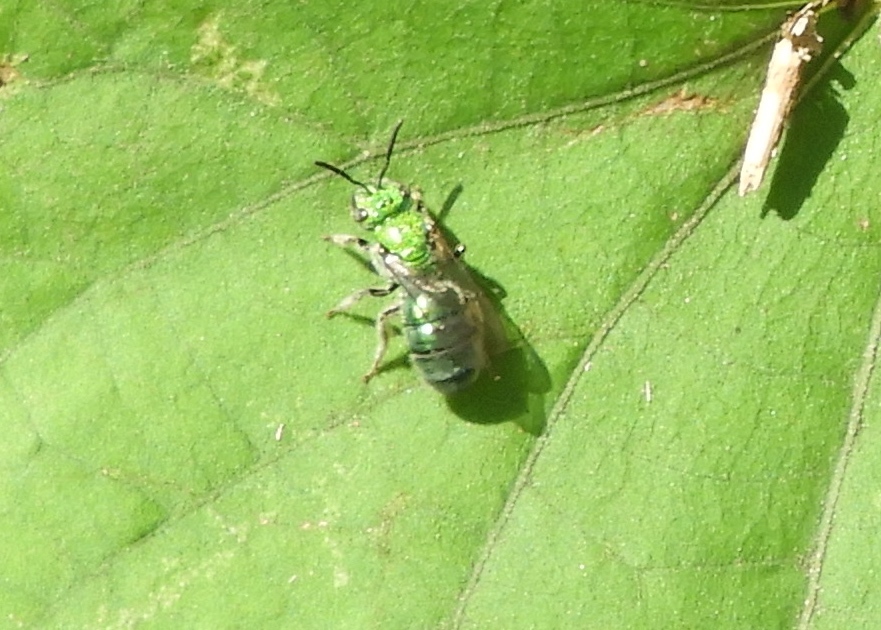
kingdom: Animalia
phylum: Arthropoda
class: Insecta
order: Hymenoptera
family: Halictidae
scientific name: Halictidae
